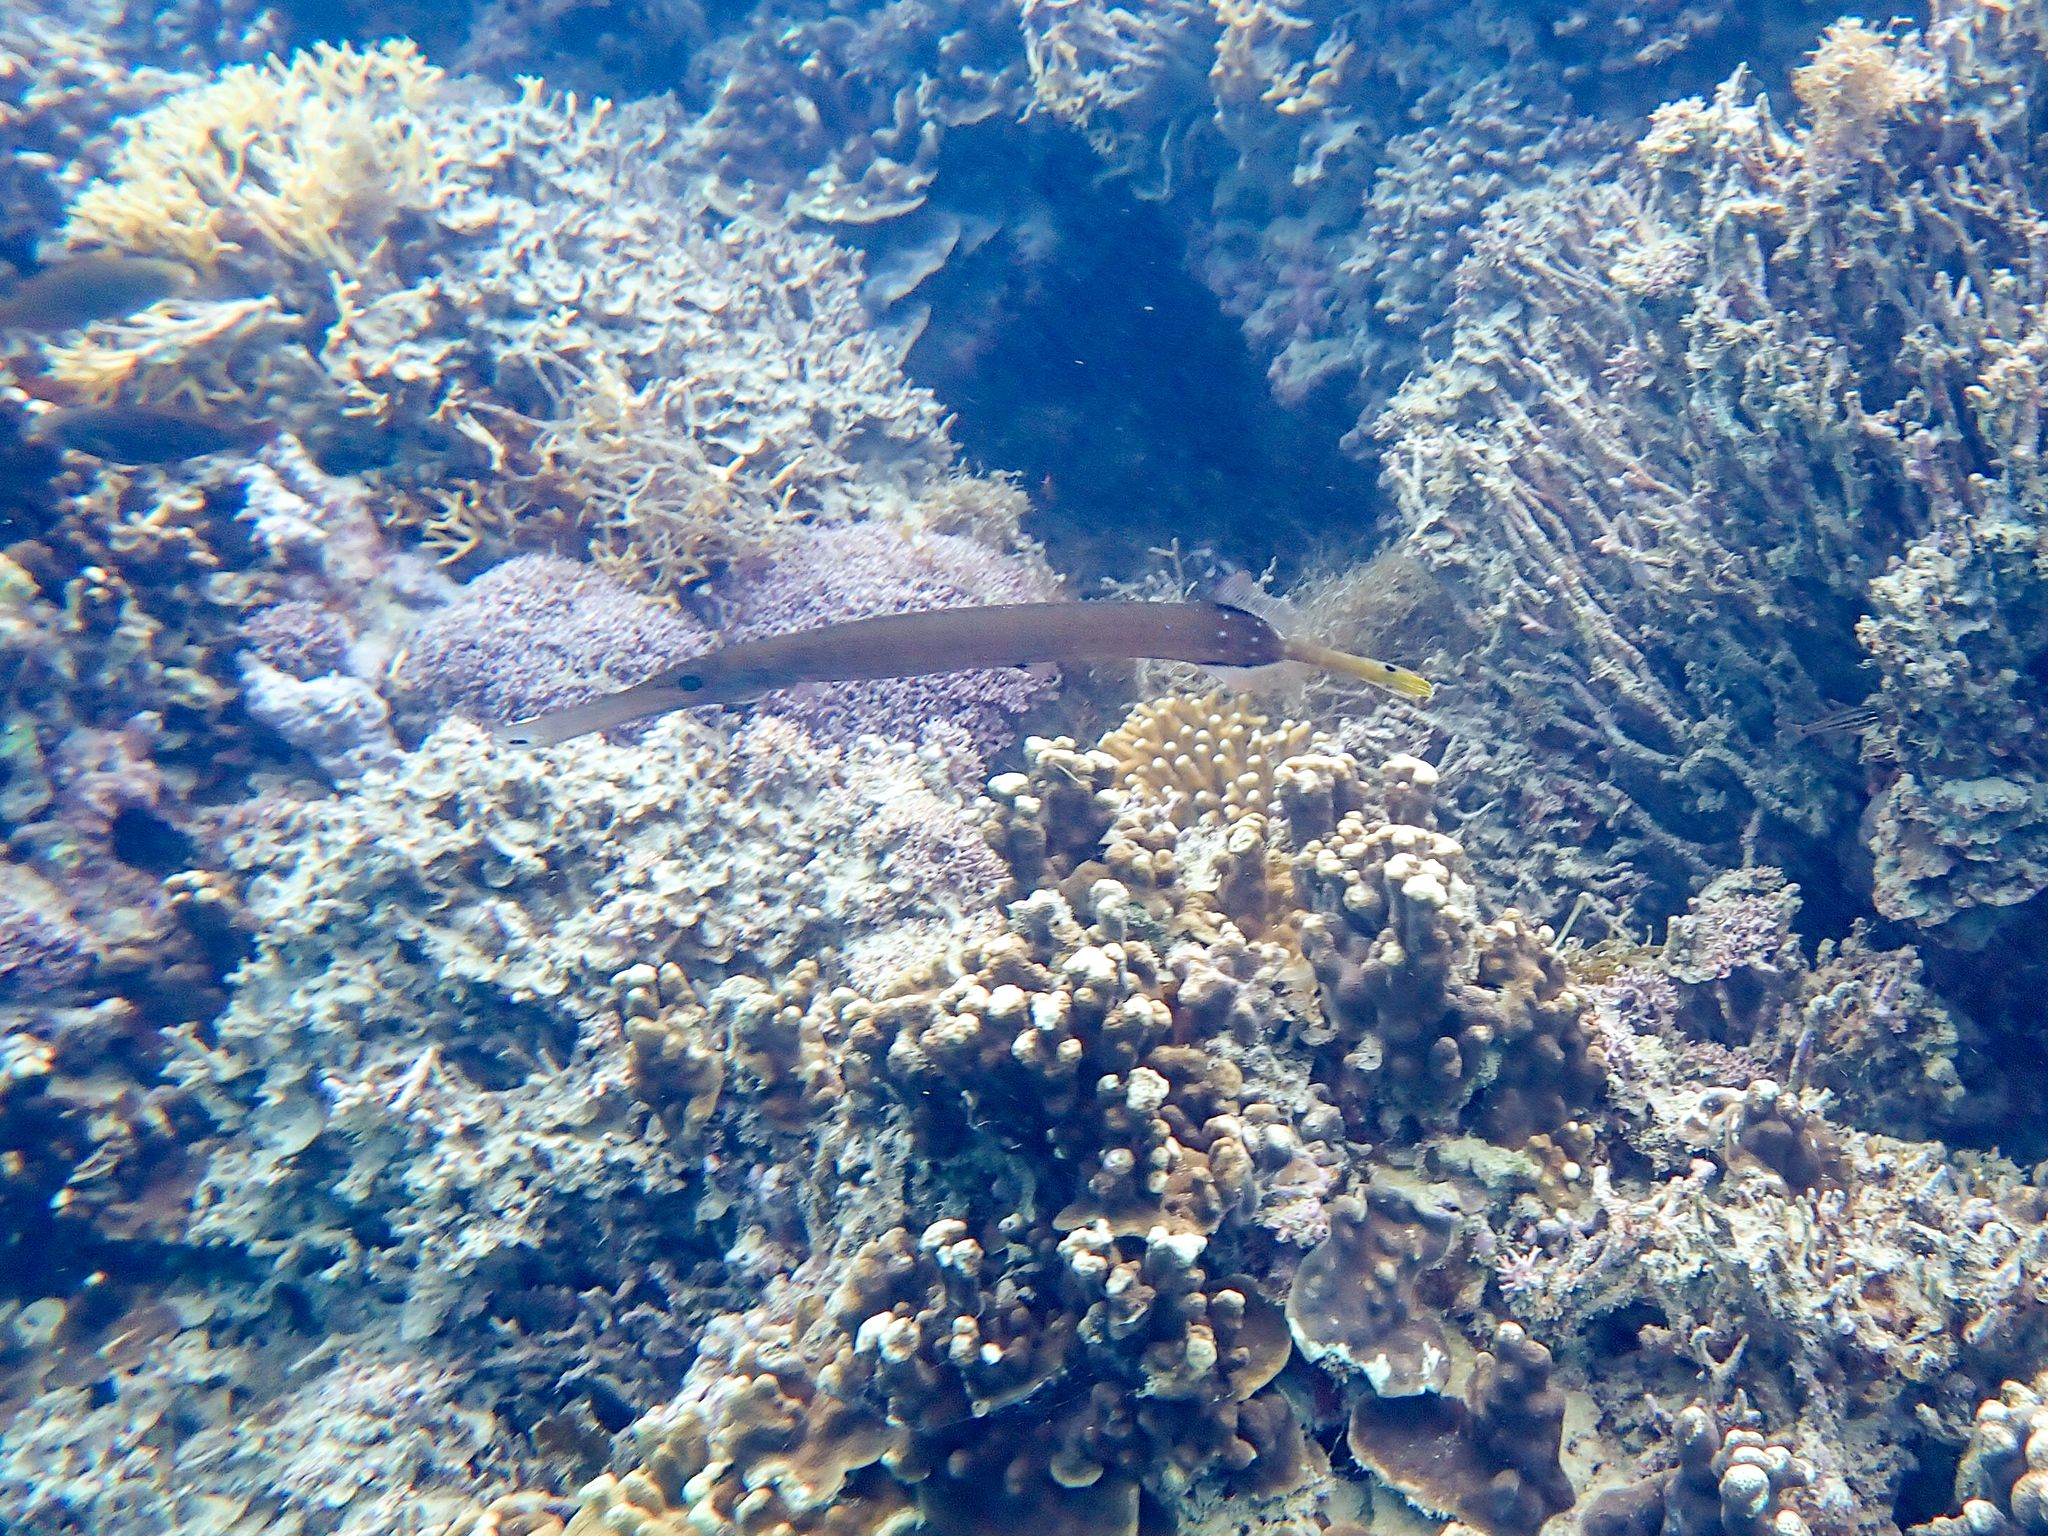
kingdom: Animalia
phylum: Chordata
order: Syngnathiformes
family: Aulostomidae
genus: Aulostomus
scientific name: Aulostomus chinensis
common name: Chinese trumpetfish
